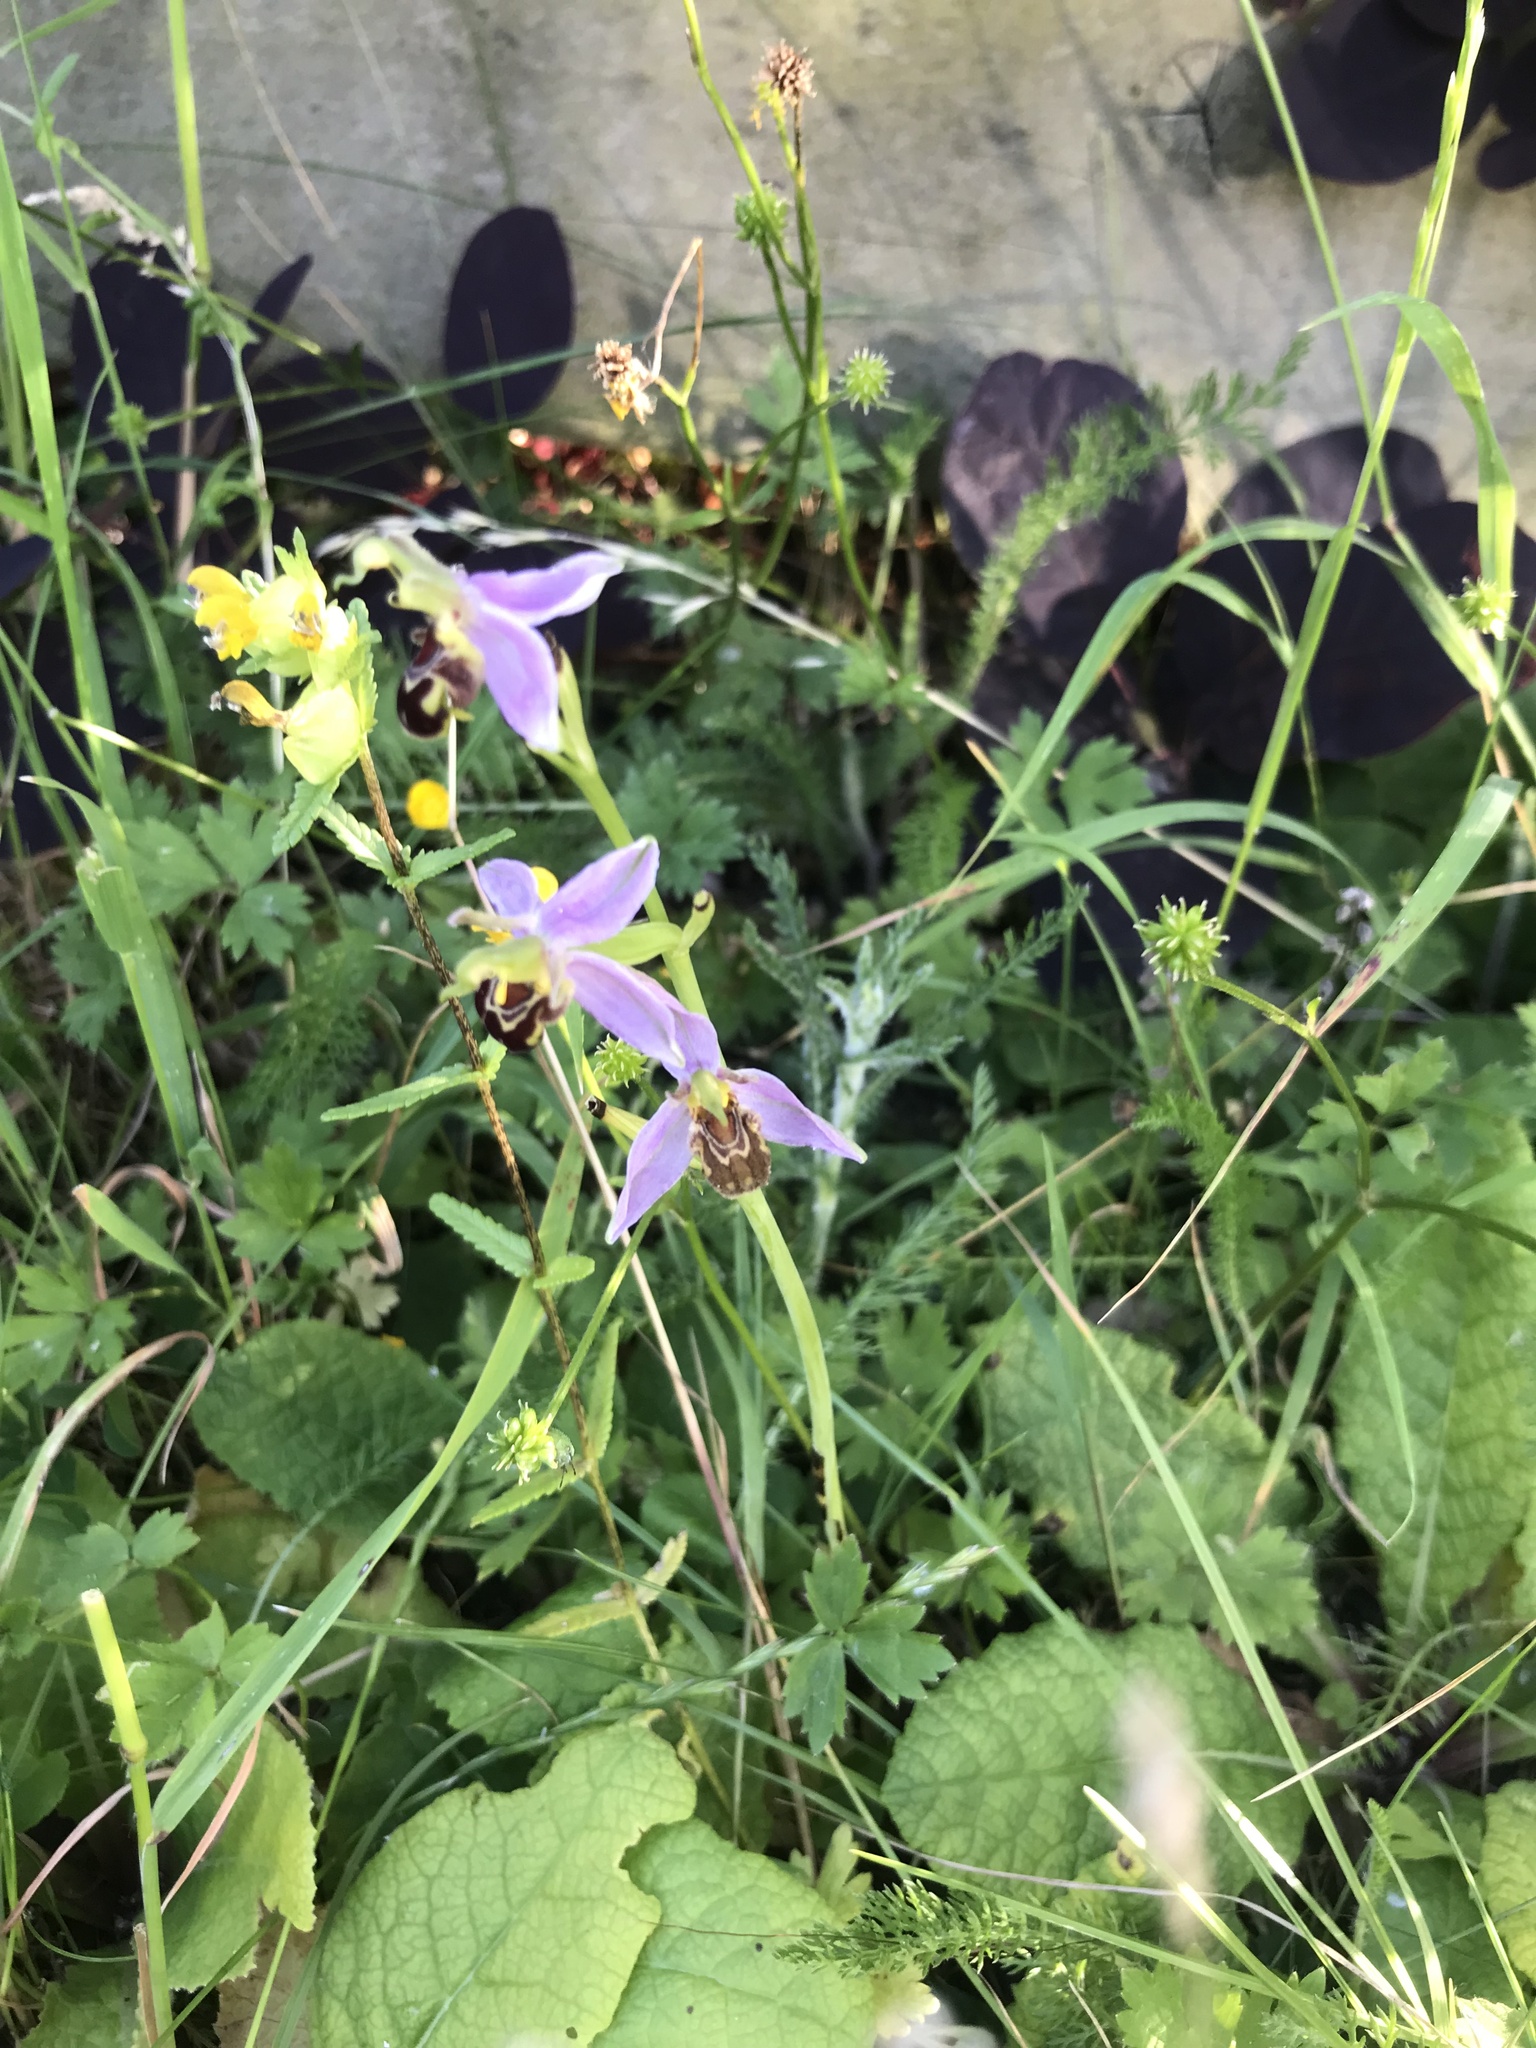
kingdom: Plantae
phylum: Tracheophyta
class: Liliopsida
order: Asparagales
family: Orchidaceae
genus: Ophrys
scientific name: Ophrys apifera
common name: Bee orchid
